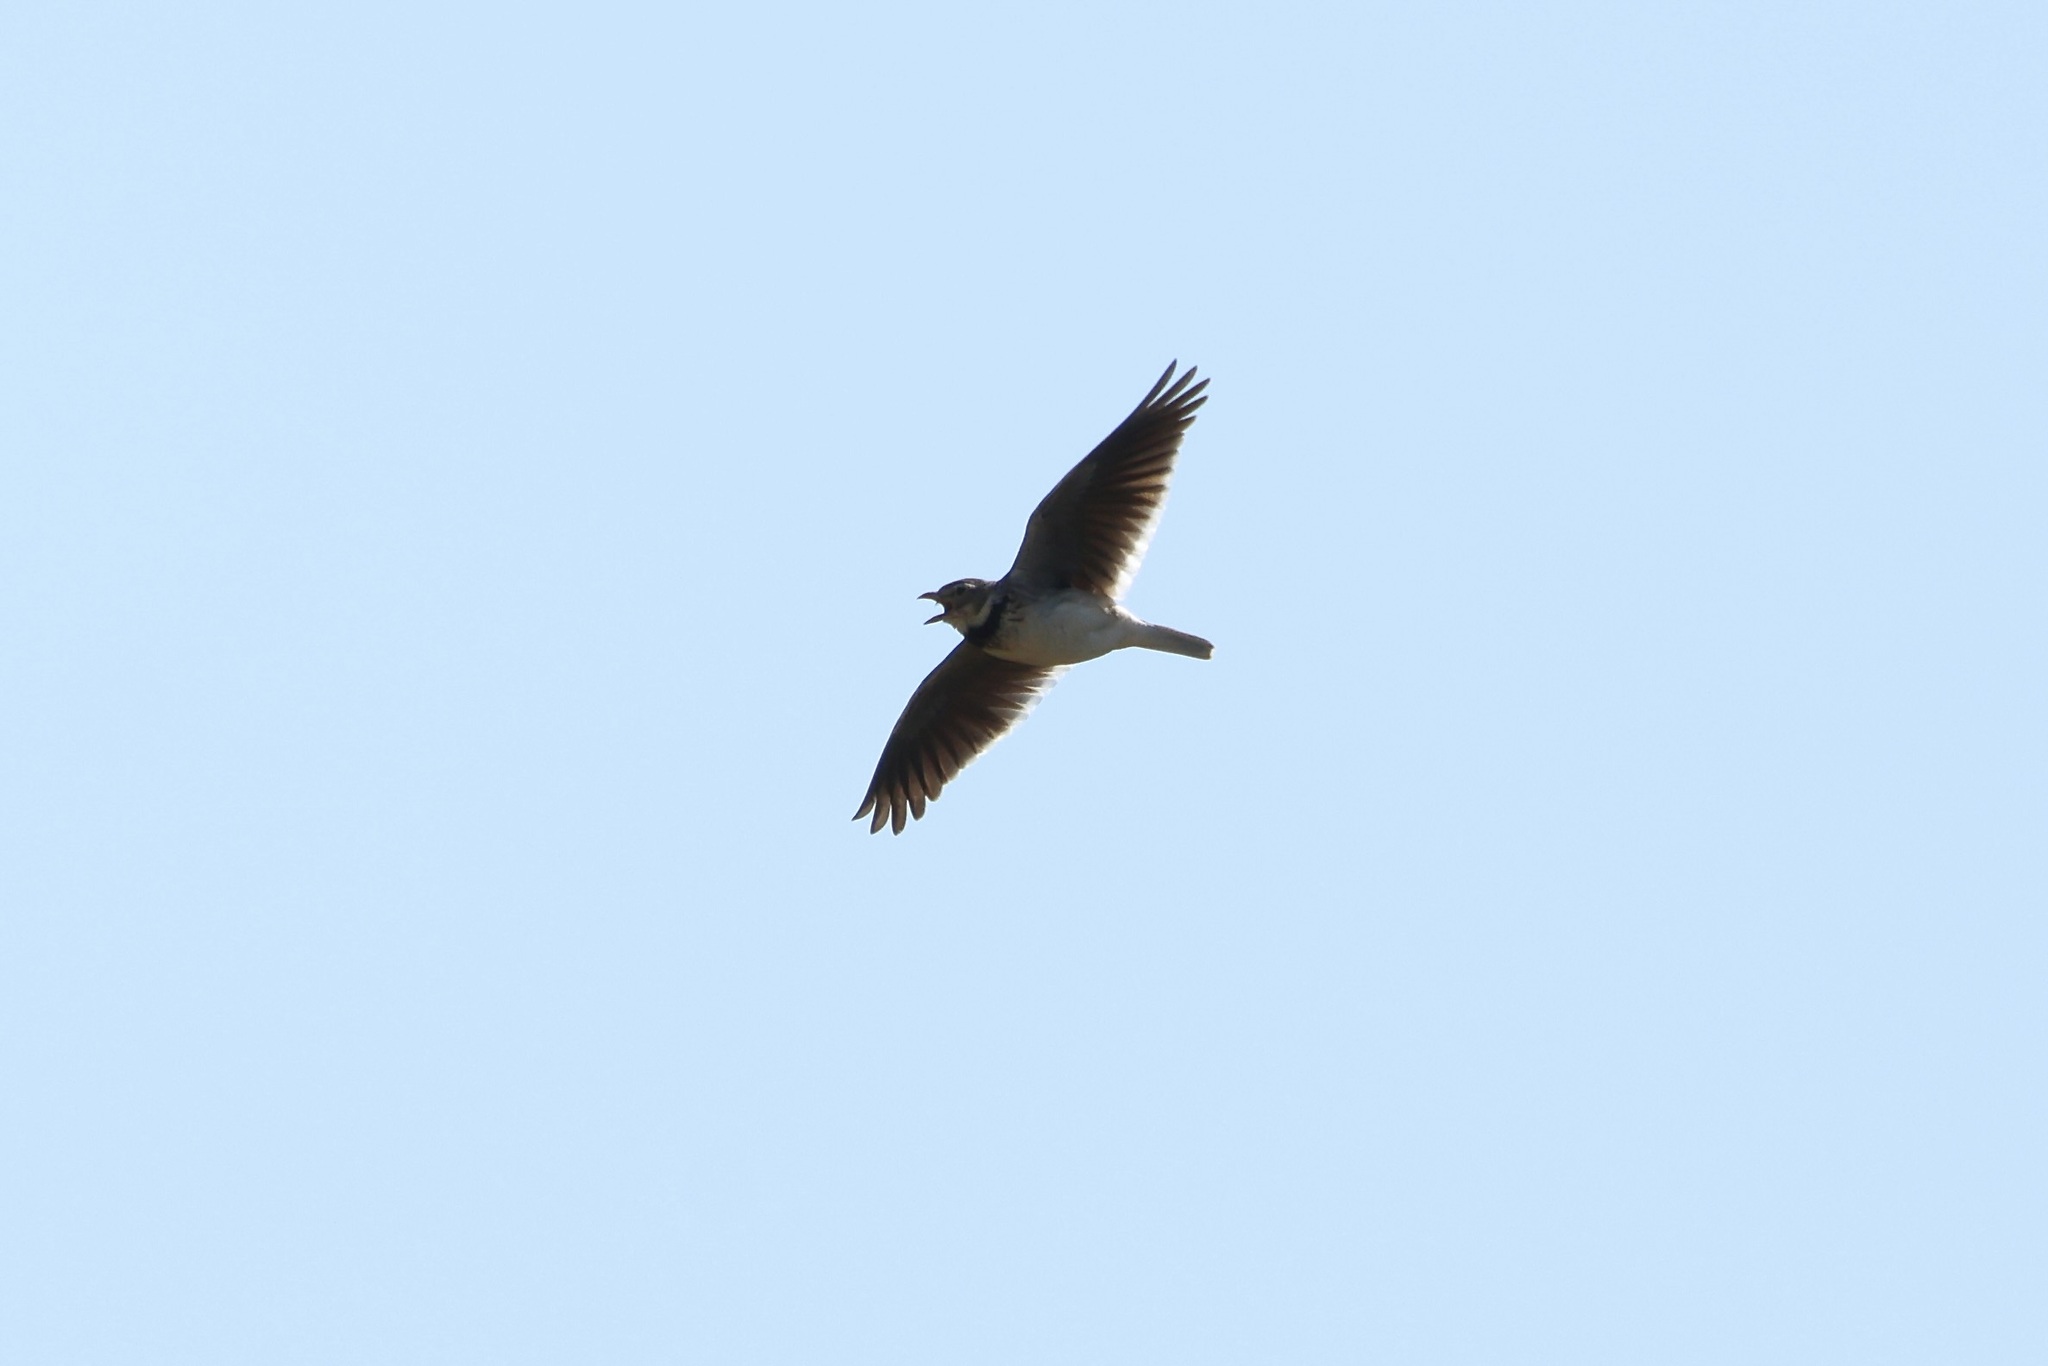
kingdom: Animalia
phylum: Chordata
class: Aves
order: Passeriformes
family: Alaudidae
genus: Melanocorypha
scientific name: Melanocorypha calandra
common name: Calandra lark
